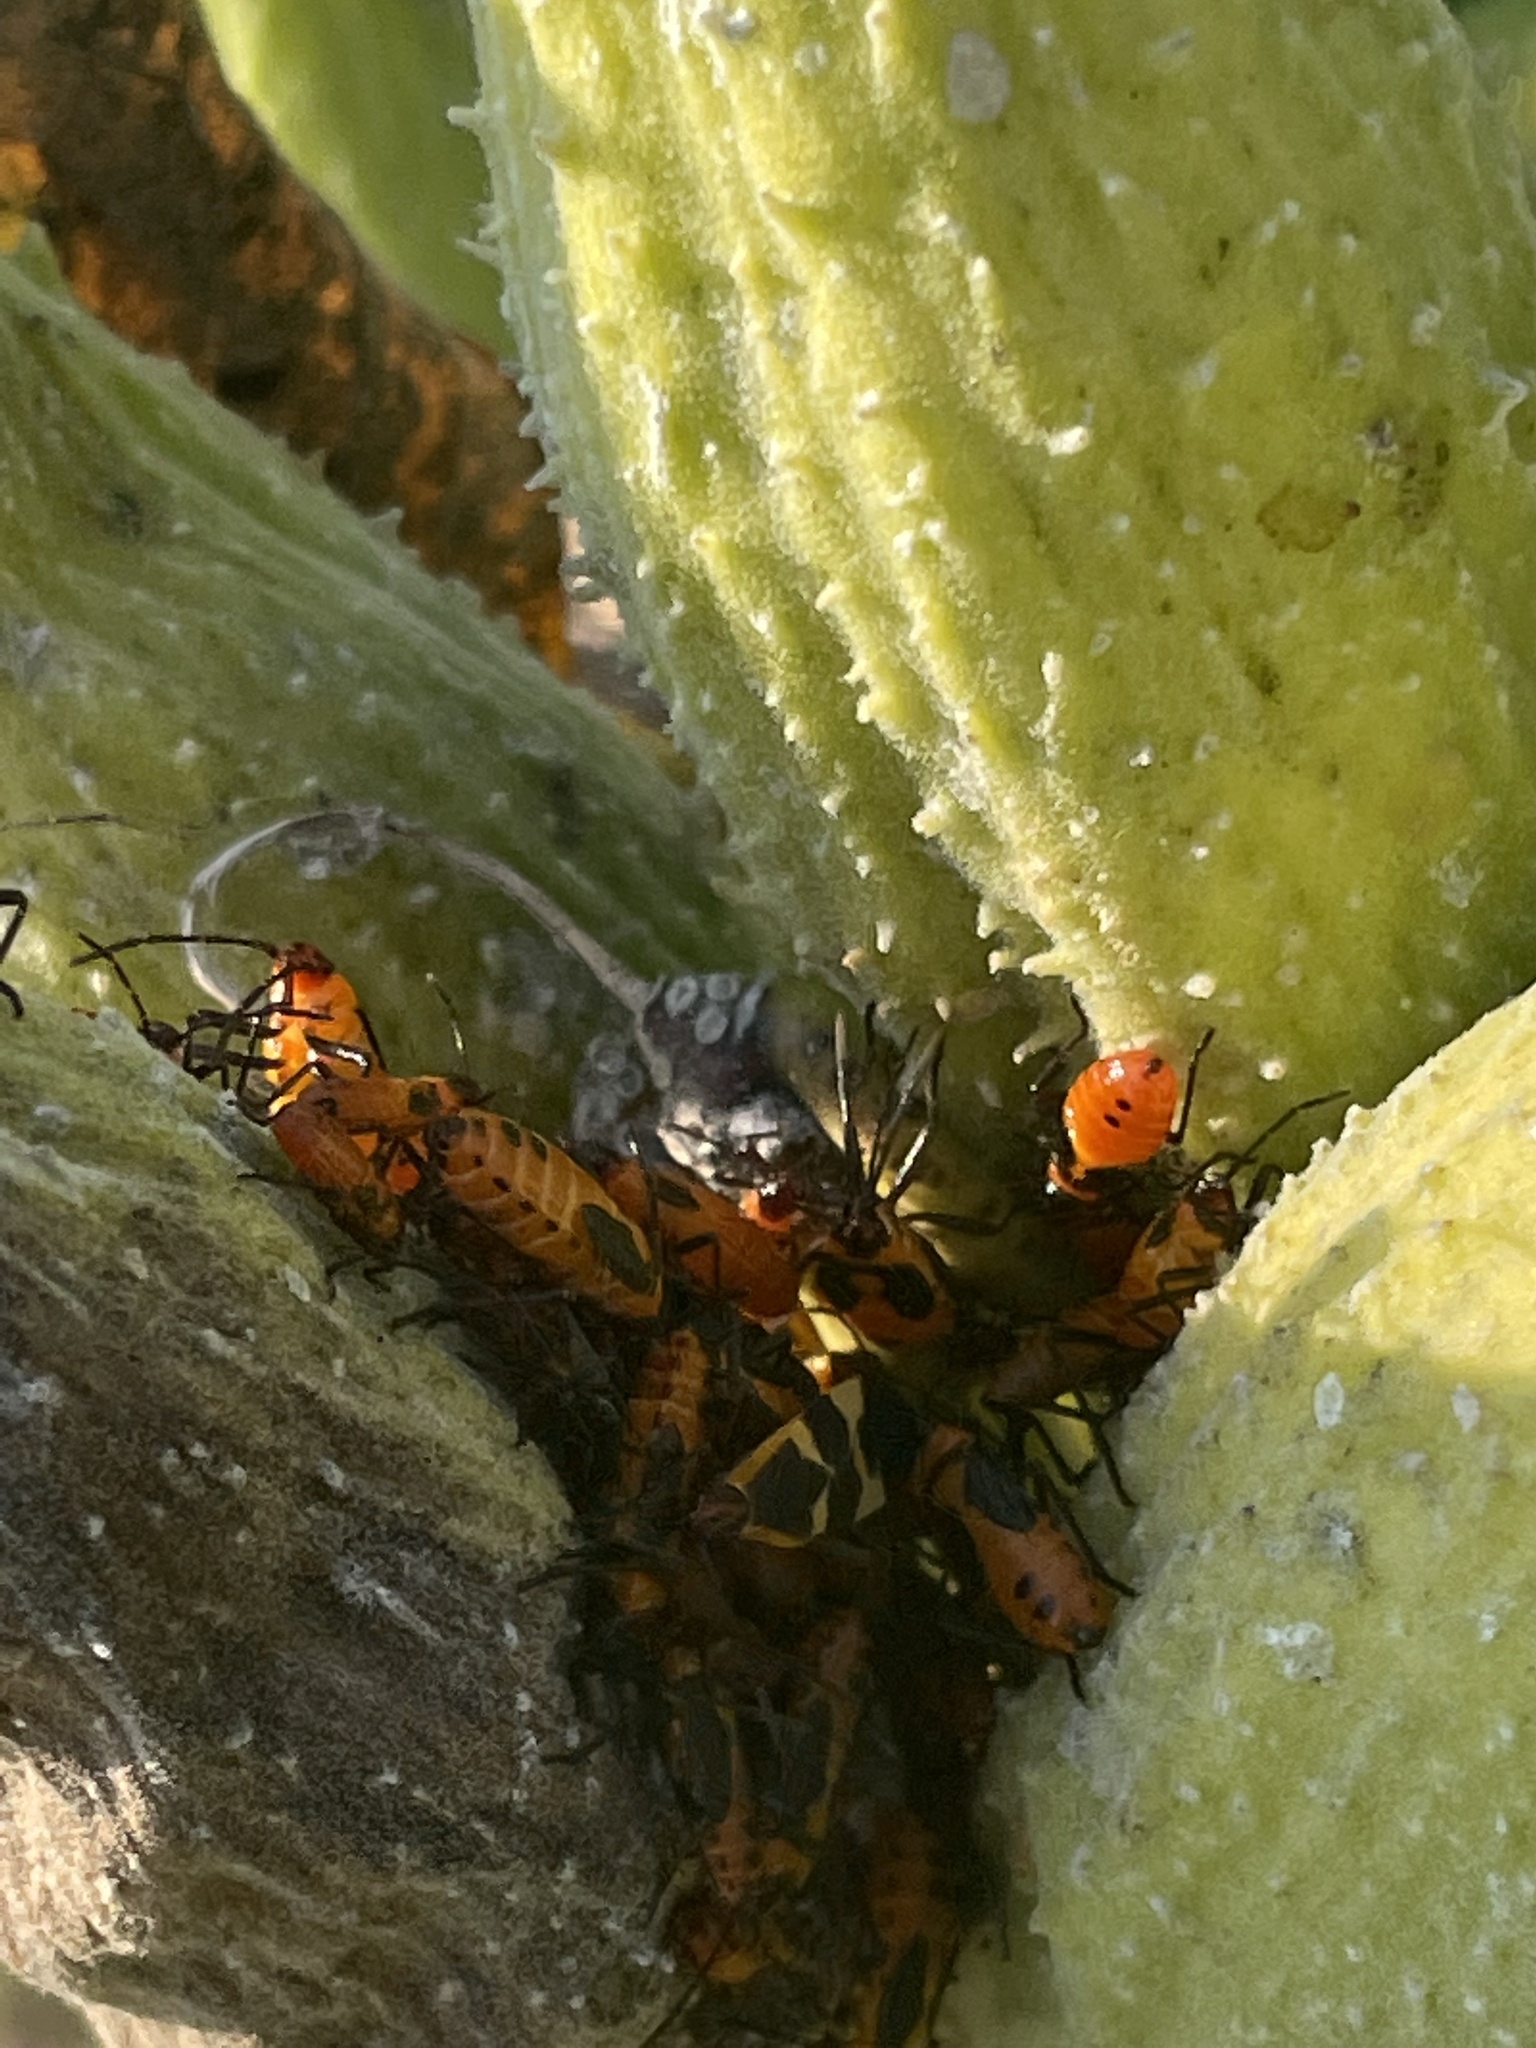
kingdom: Animalia
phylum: Arthropoda
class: Insecta
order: Hemiptera
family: Lygaeidae
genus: Oncopeltus
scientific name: Oncopeltus fasciatus
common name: Large milkweed bug
